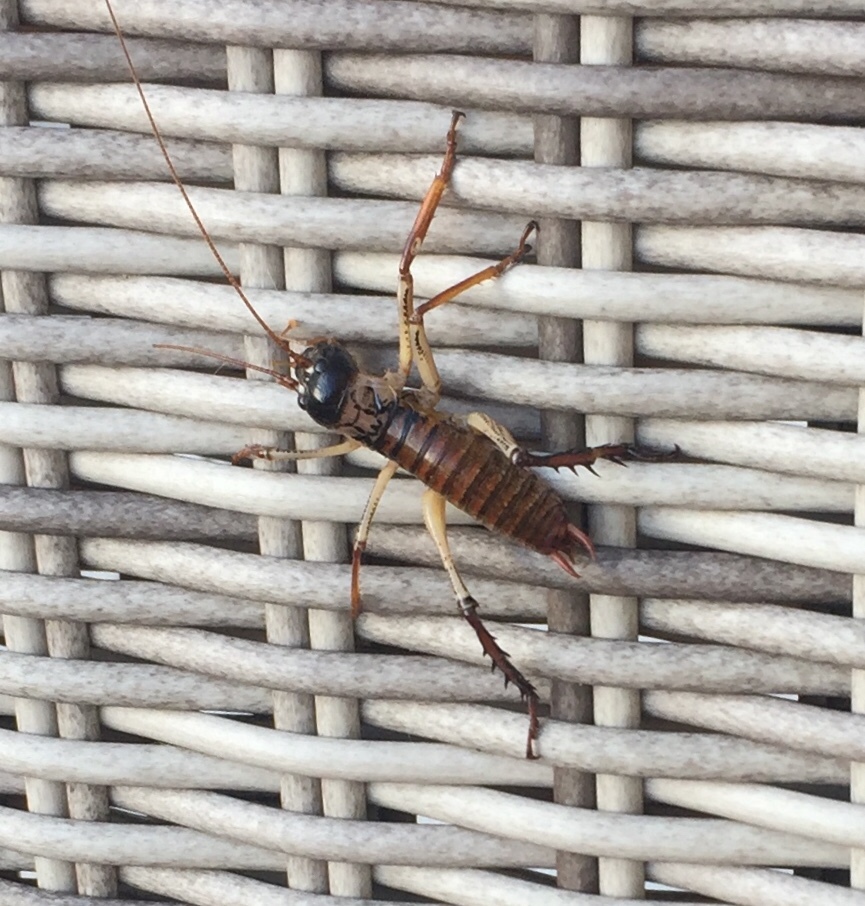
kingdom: Animalia
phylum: Arthropoda
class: Insecta
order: Orthoptera
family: Anostostomatidae
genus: Hemideina
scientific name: Hemideina thoracica
